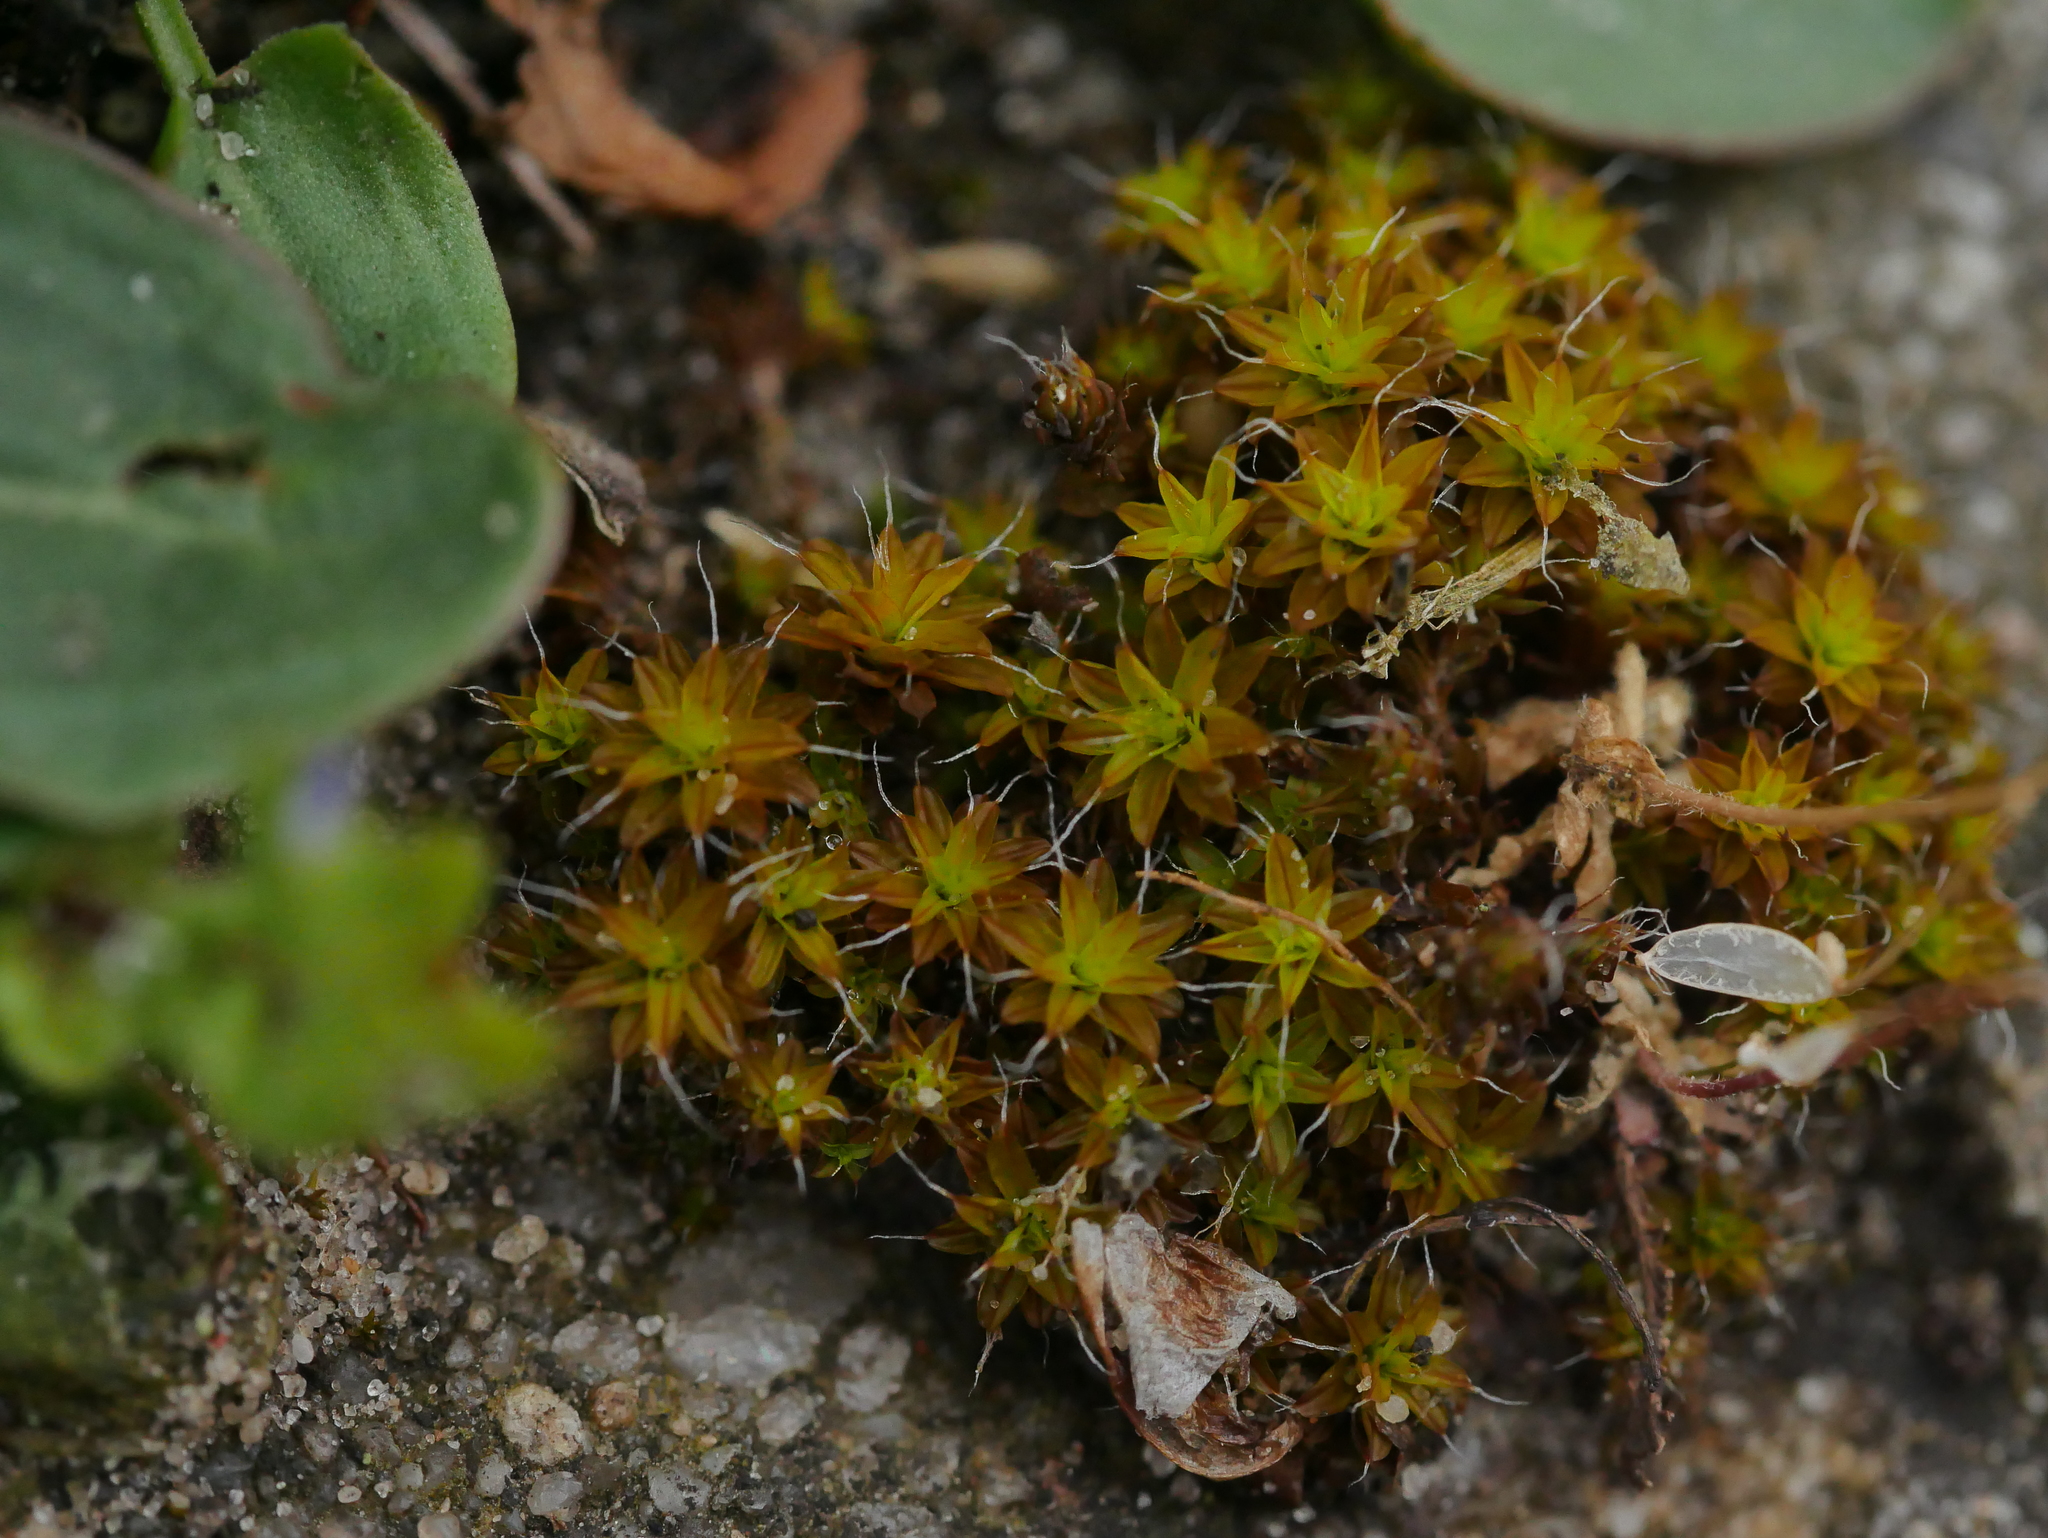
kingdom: Plantae
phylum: Bryophyta
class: Bryopsida
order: Pottiales
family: Pottiaceae
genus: Syntrichia
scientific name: Syntrichia ruralis
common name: Sidewalk screw moss
